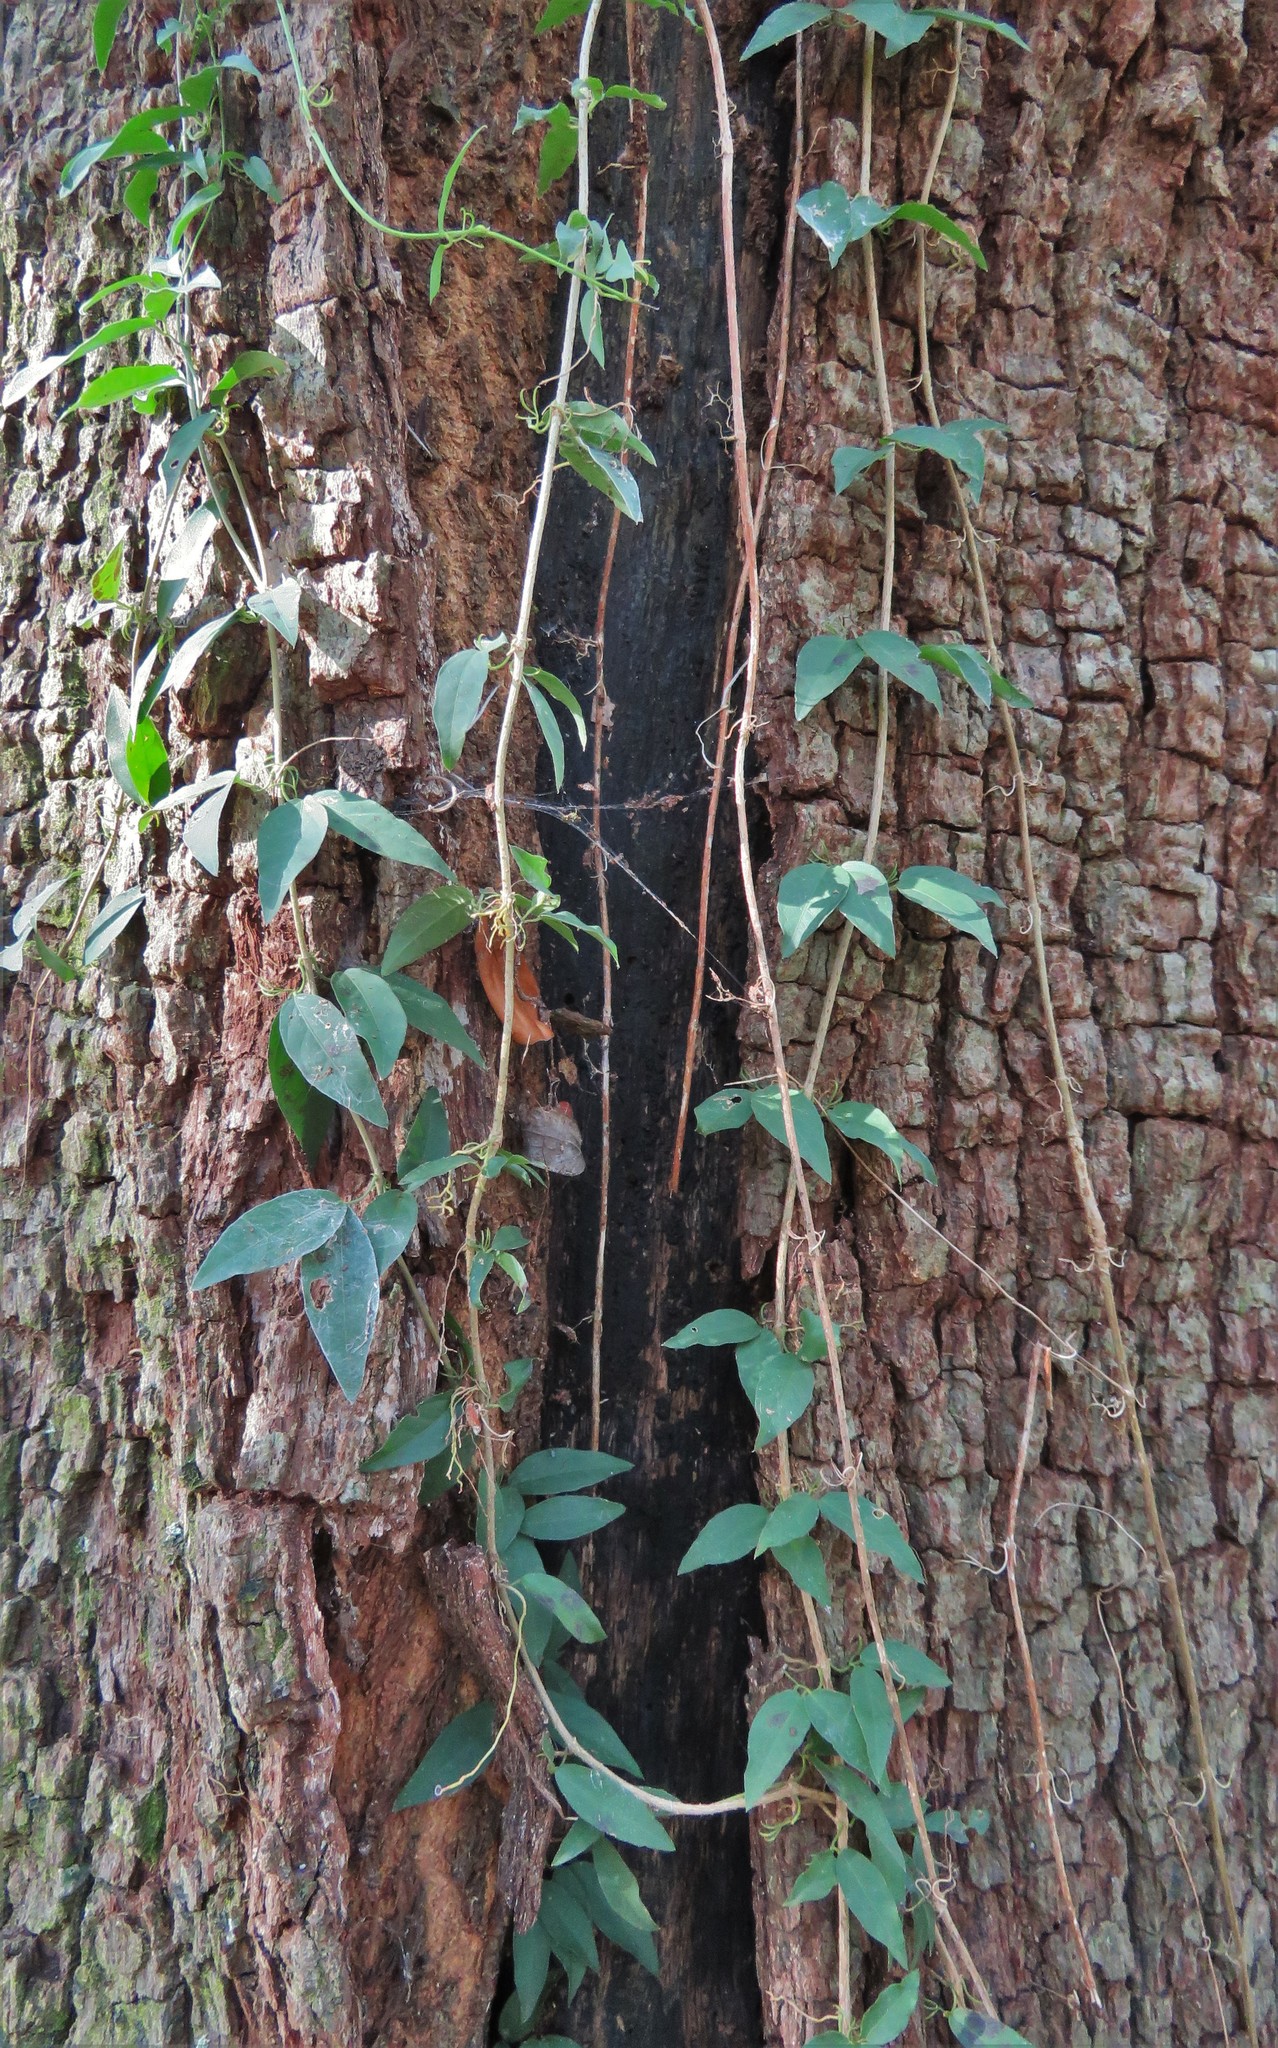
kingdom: Plantae
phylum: Tracheophyta
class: Magnoliopsida
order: Lamiales
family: Bignoniaceae
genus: Dolichandra
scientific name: Dolichandra unguis-cati
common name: Catclaw vine
